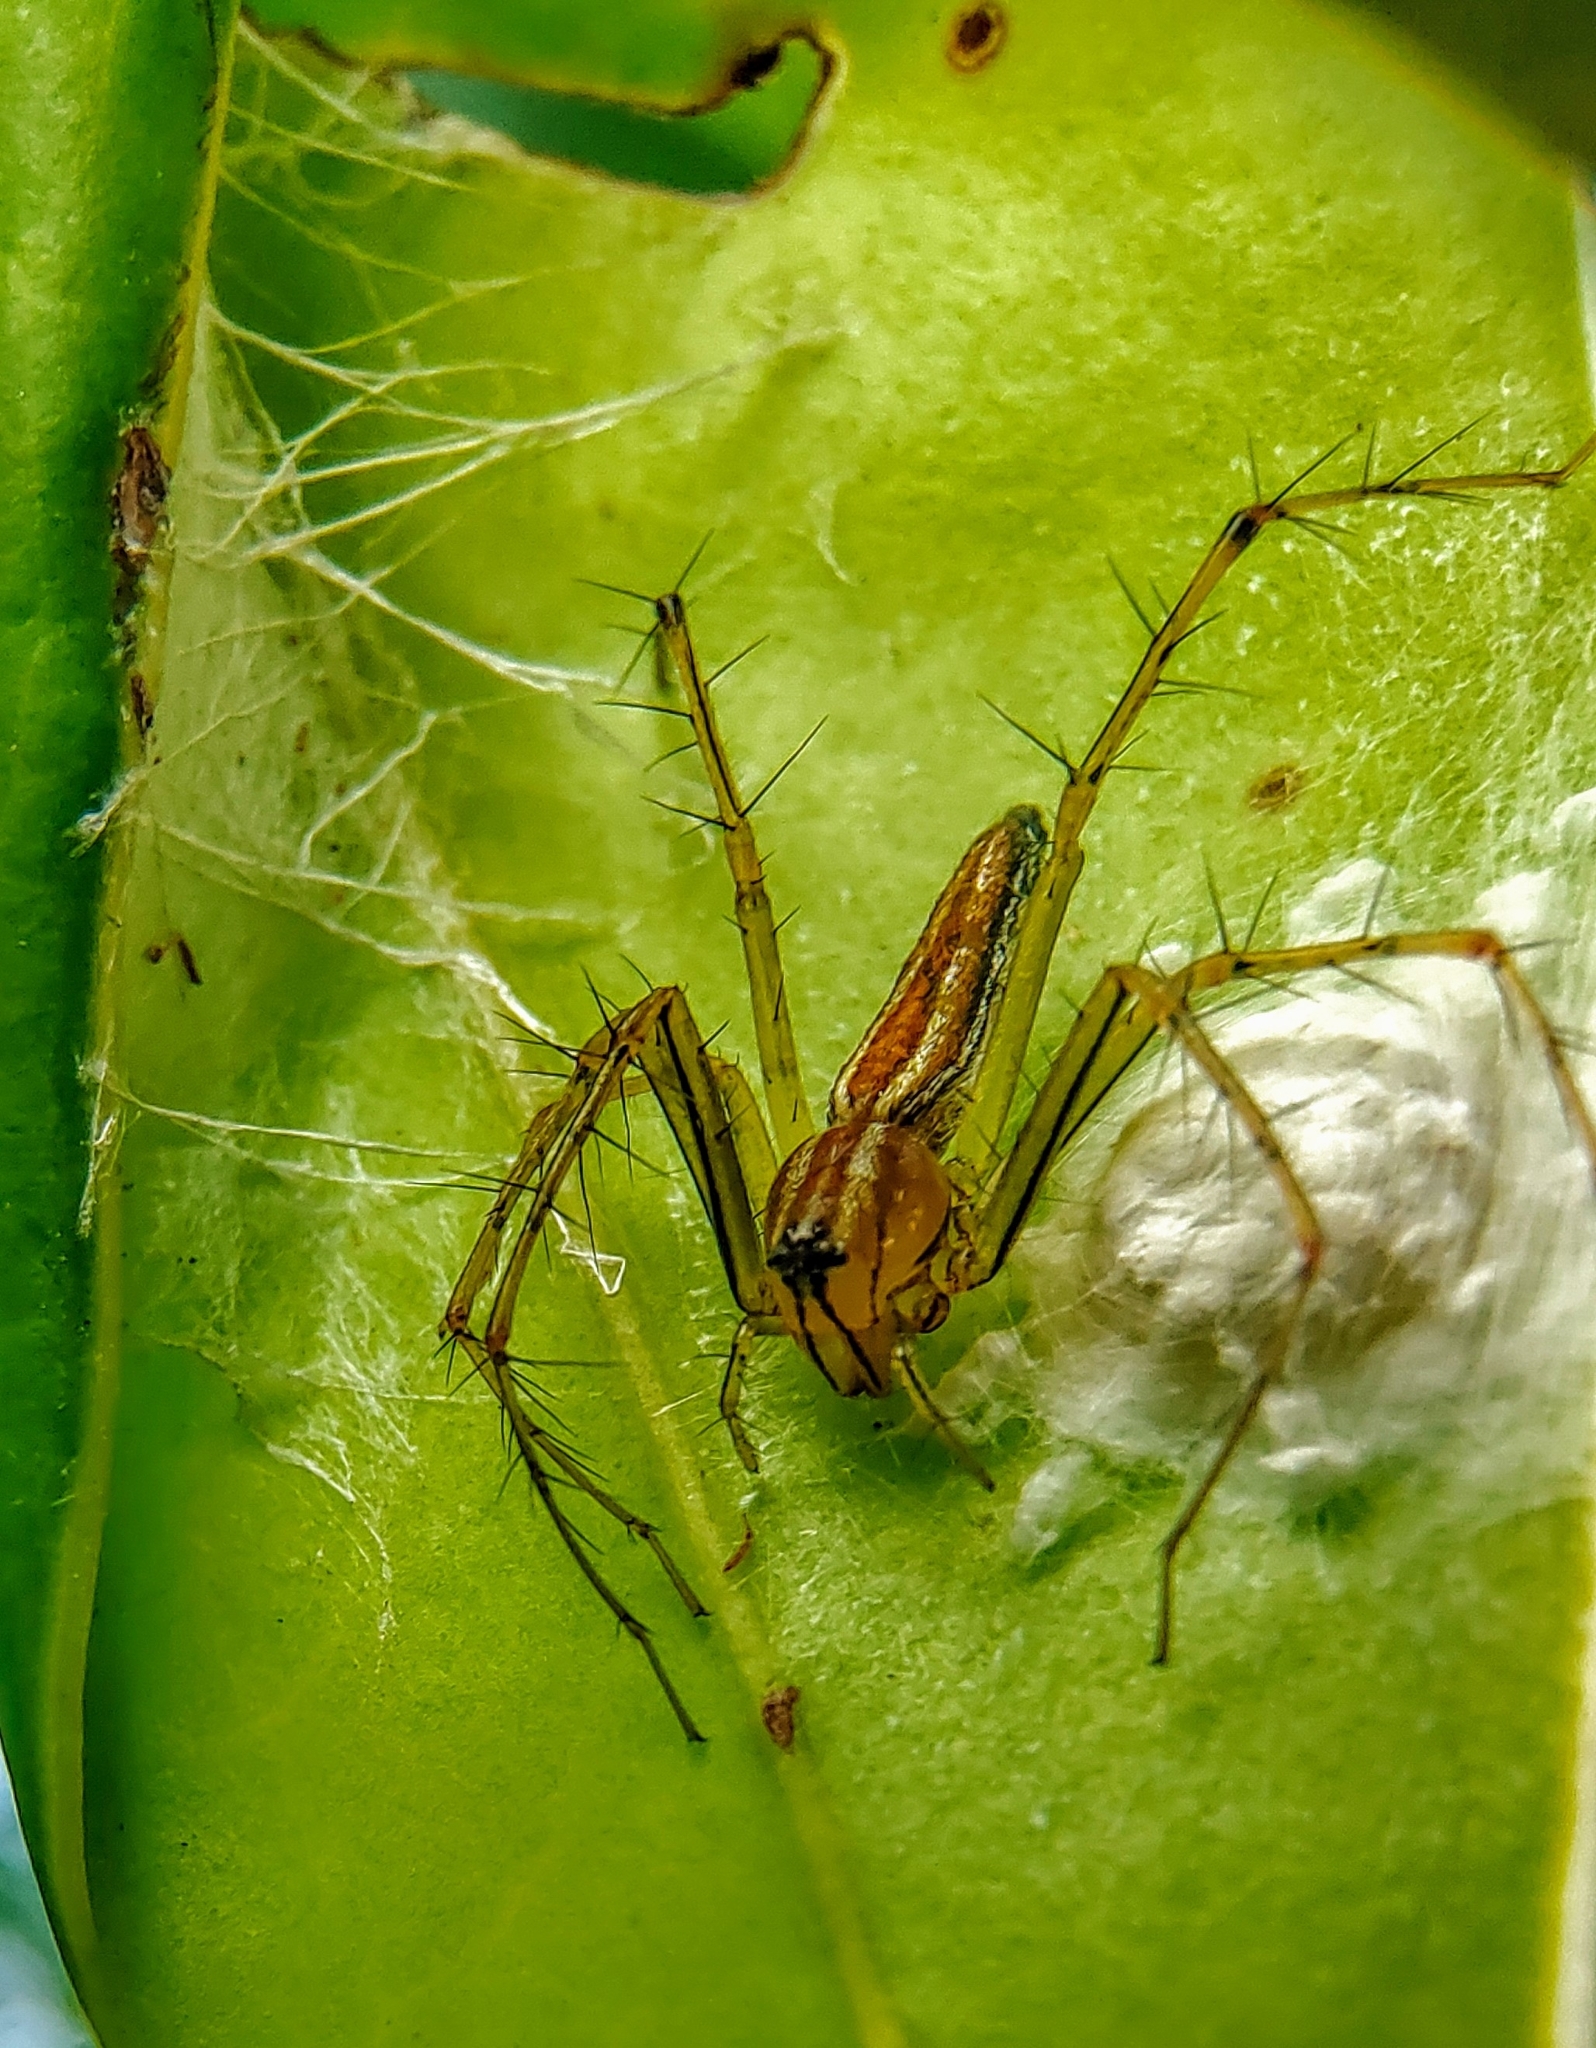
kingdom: Animalia
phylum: Arthropoda
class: Arachnida
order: Araneae
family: Oxyopidae
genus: Oxyopes
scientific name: Oxyopes macilentus
